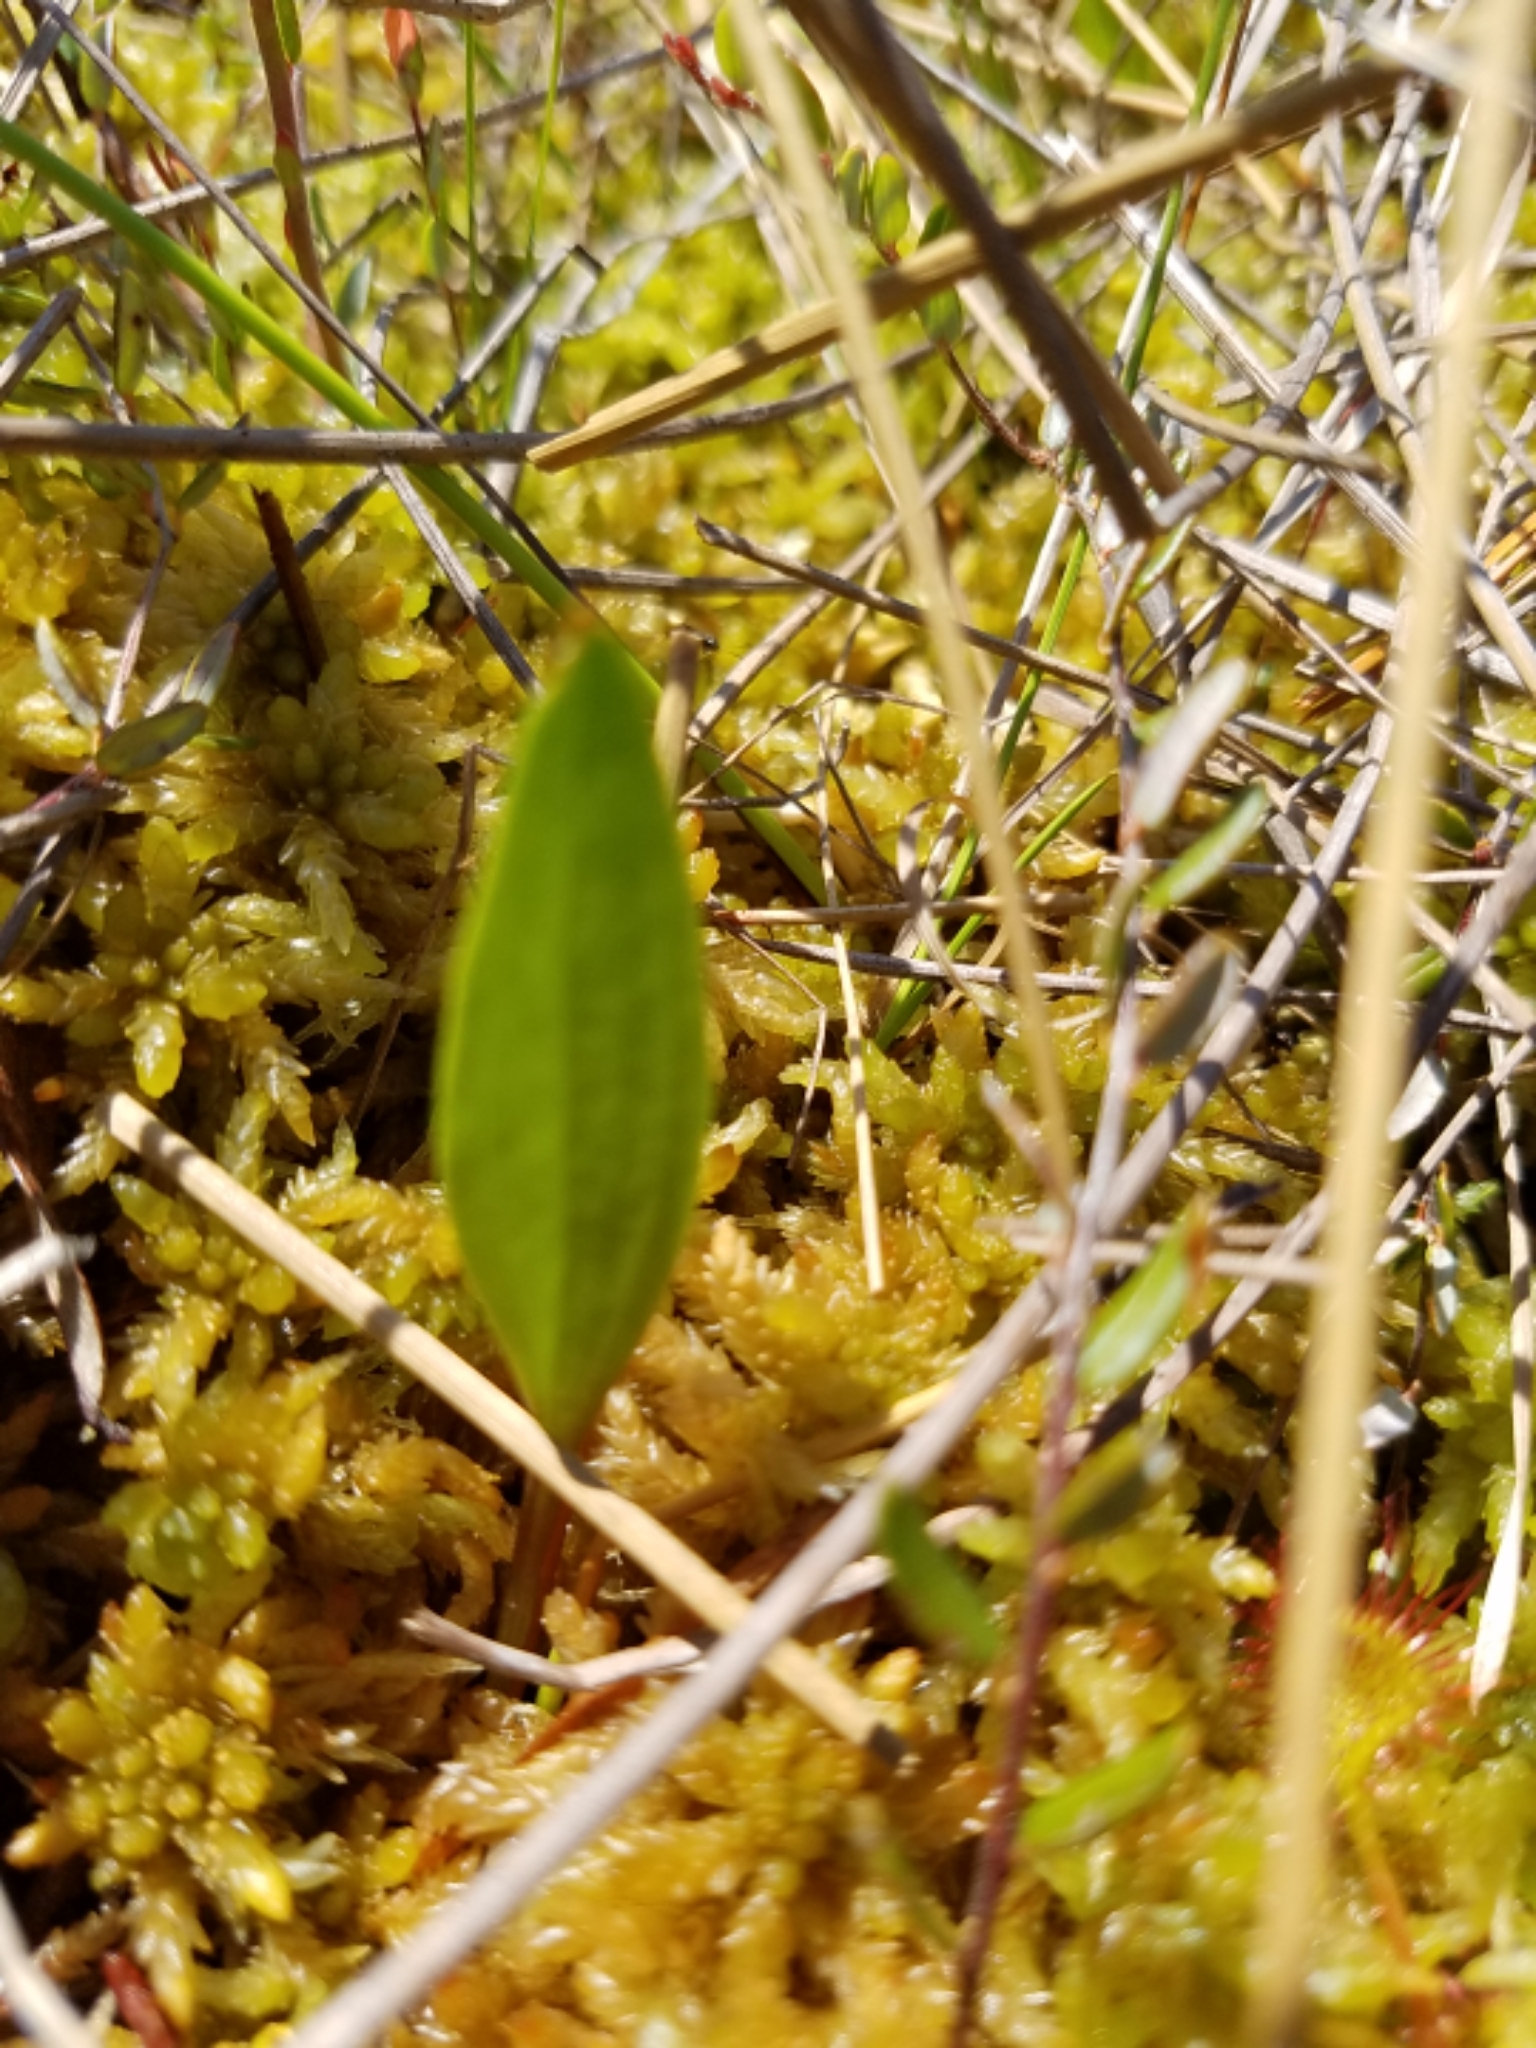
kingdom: Plantae
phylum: Tracheophyta
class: Liliopsida
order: Asparagales
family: Orchidaceae
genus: Calopogon
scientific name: Calopogon tuberosus
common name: Grass-pink
